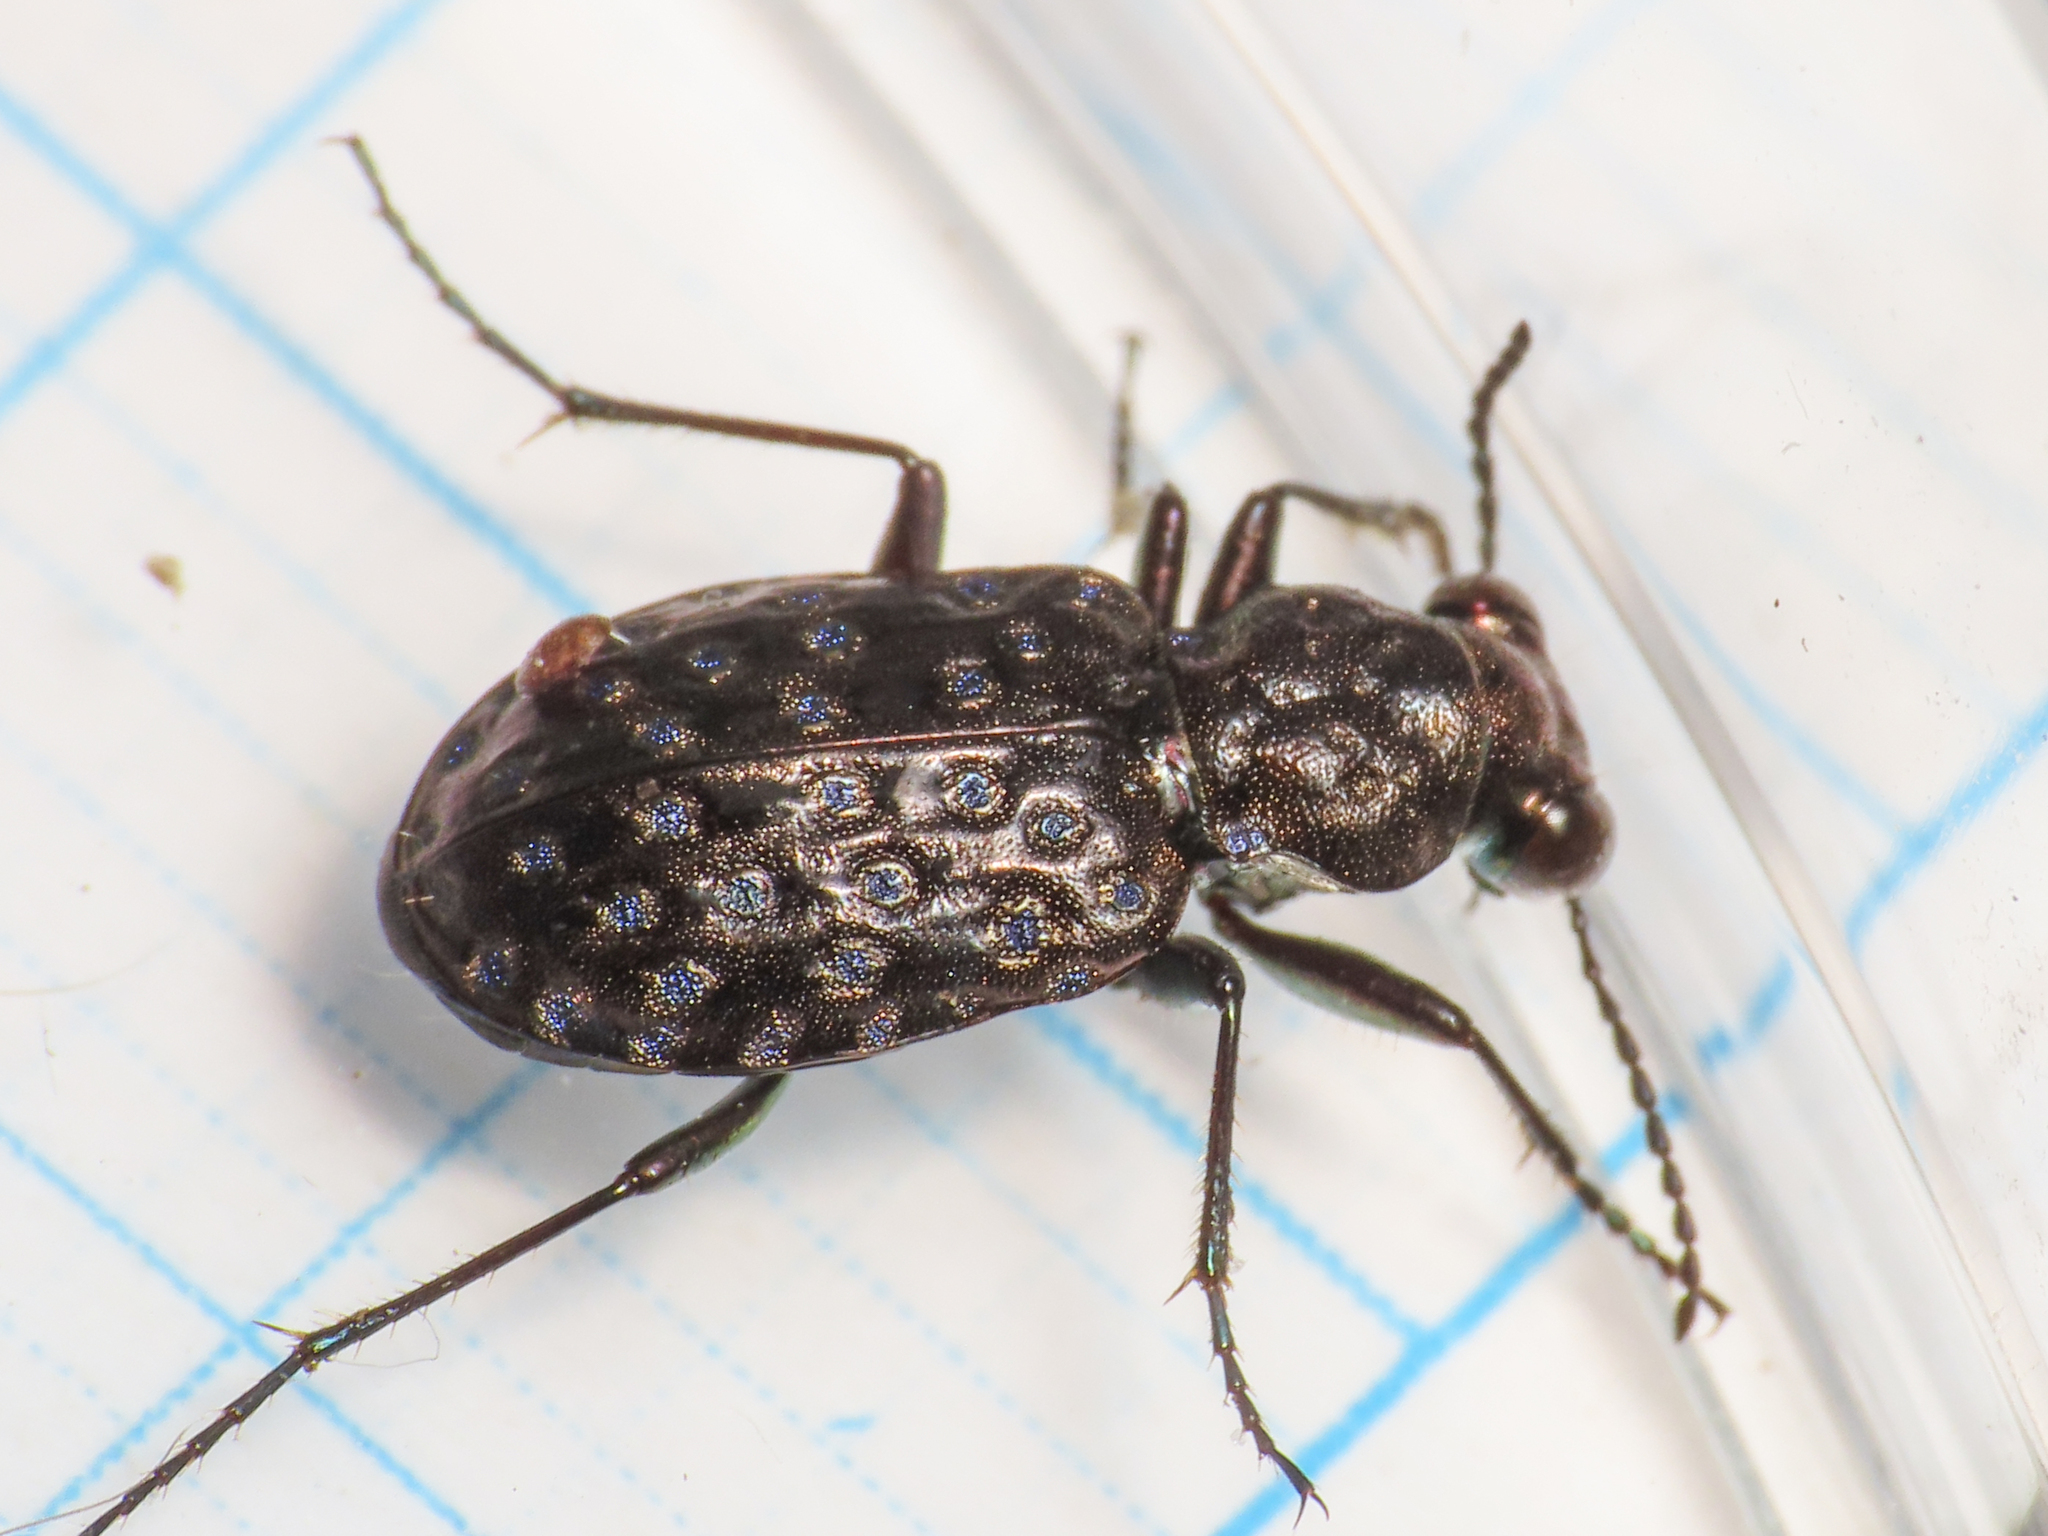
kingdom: Animalia
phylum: Arthropoda
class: Insecta
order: Coleoptera
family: Carabidae
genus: Elaphrus
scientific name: Elaphrus uliginosus
